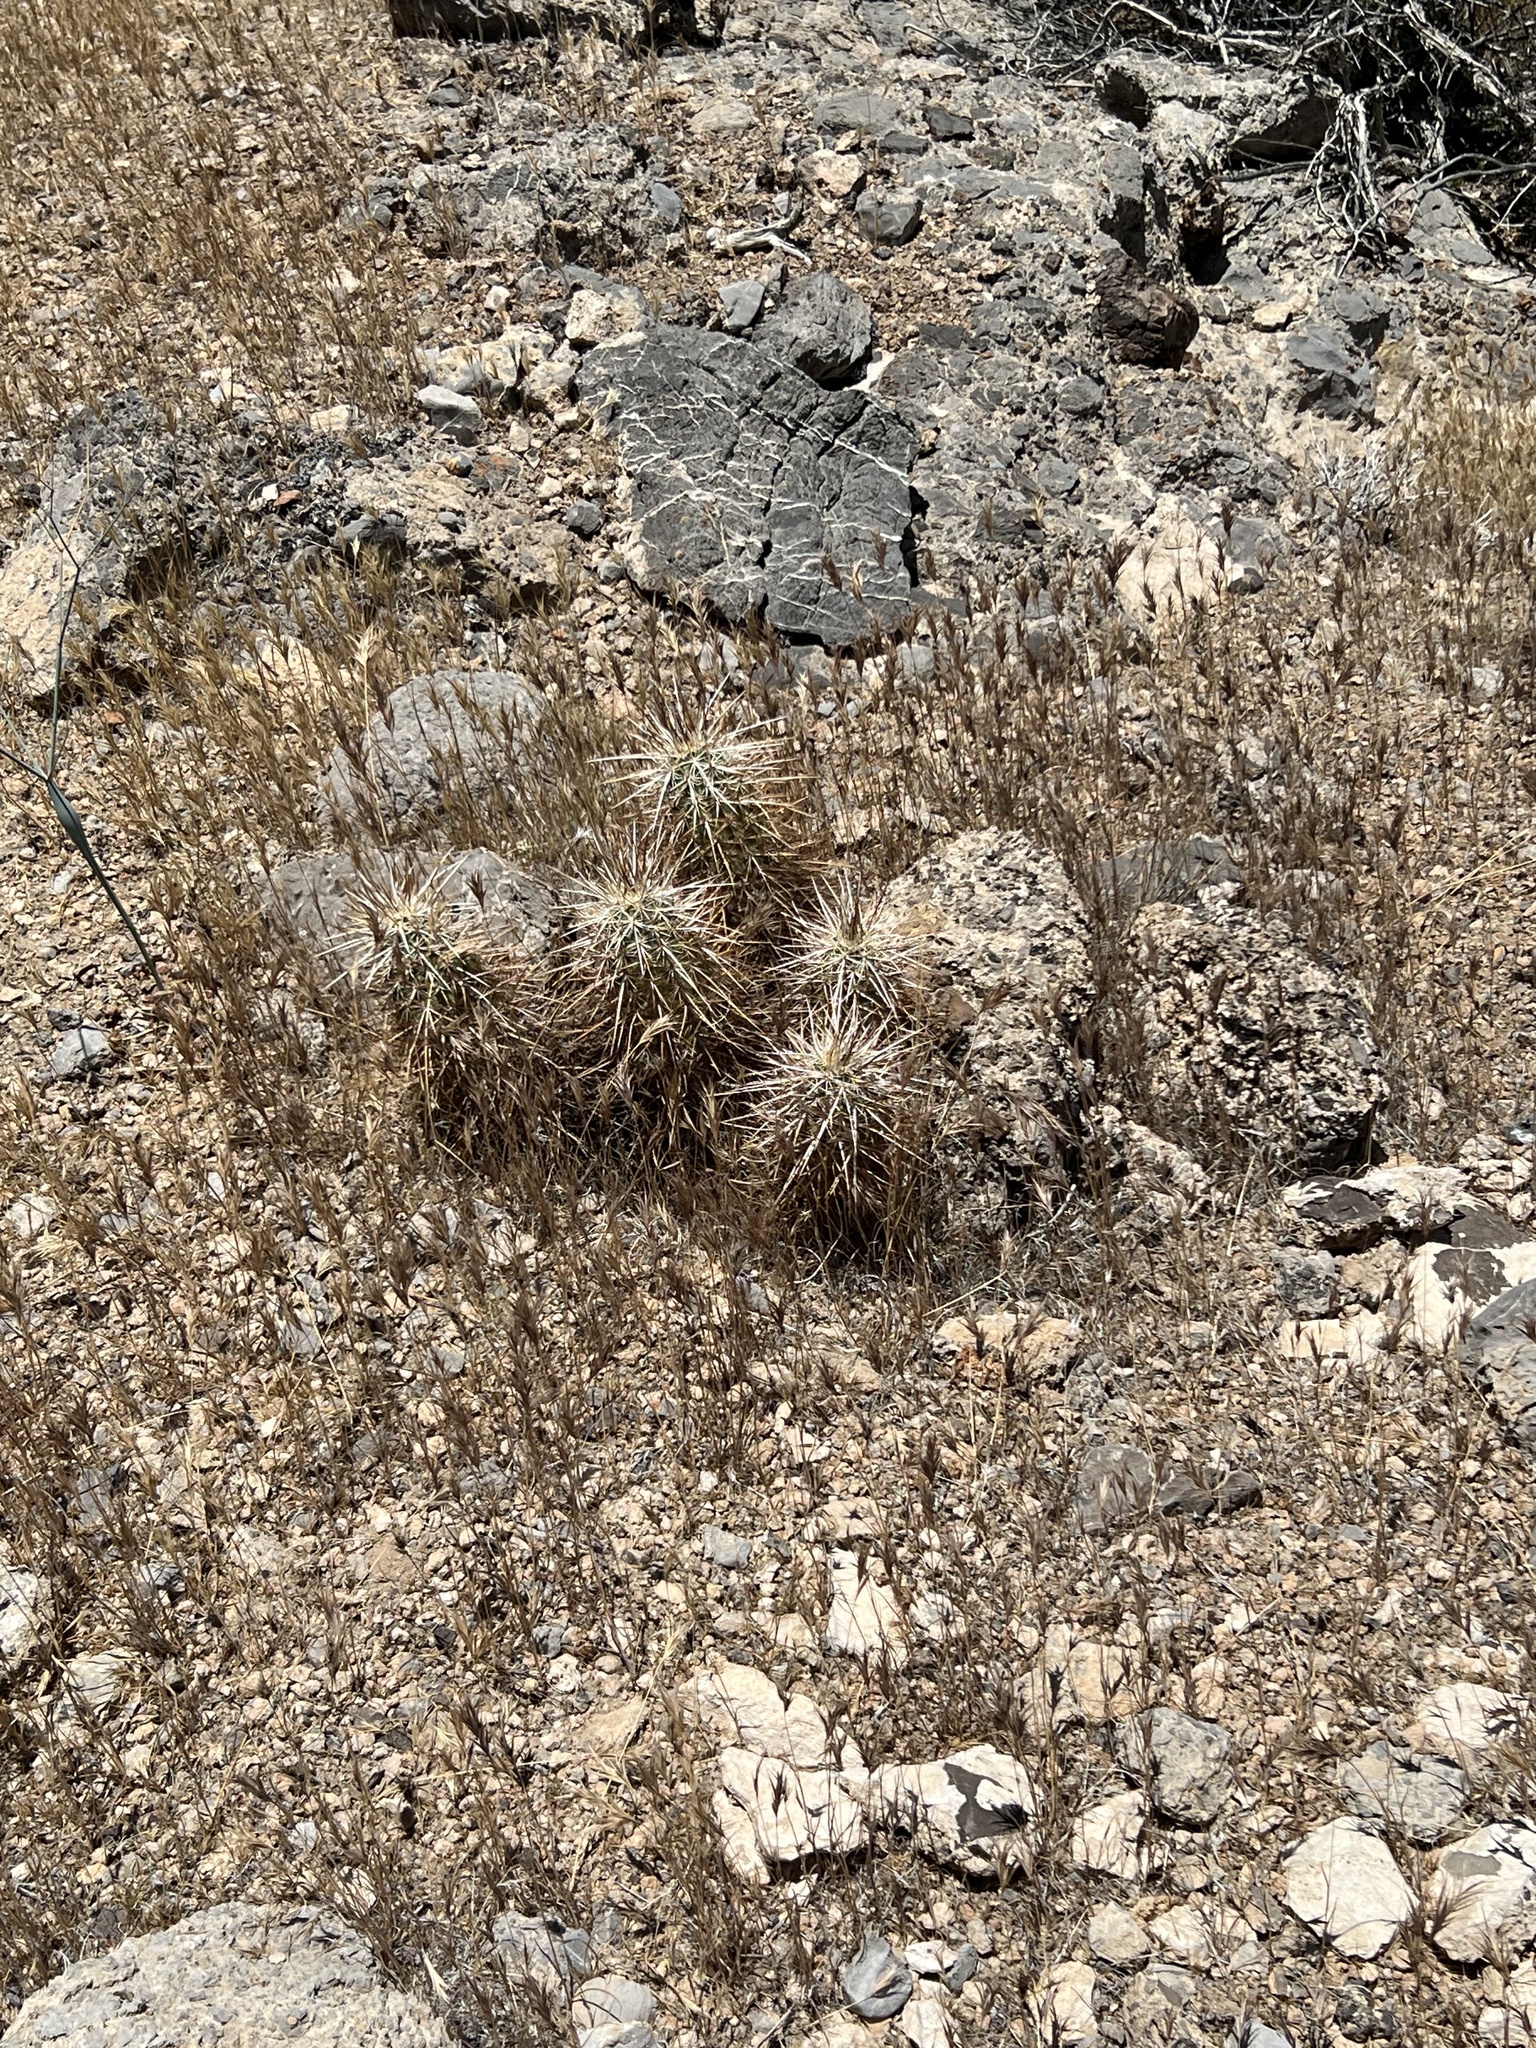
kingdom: Plantae
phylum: Tracheophyta
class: Magnoliopsida
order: Caryophyllales
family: Cactaceae
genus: Echinocereus
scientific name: Echinocereus engelmannii
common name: Engelmann's hedgehog cactus
